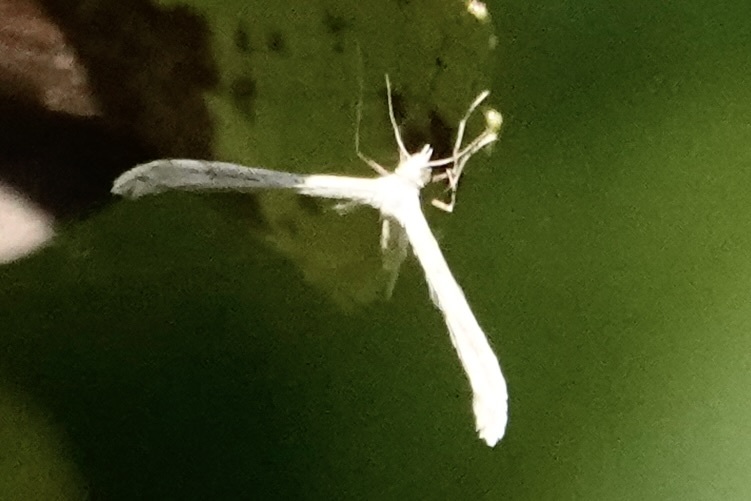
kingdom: Animalia
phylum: Arthropoda
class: Insecta
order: Lepidoptera
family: Pterophoridae
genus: Lioptilodes
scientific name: Lioptilodes albistriolatus
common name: Moth
